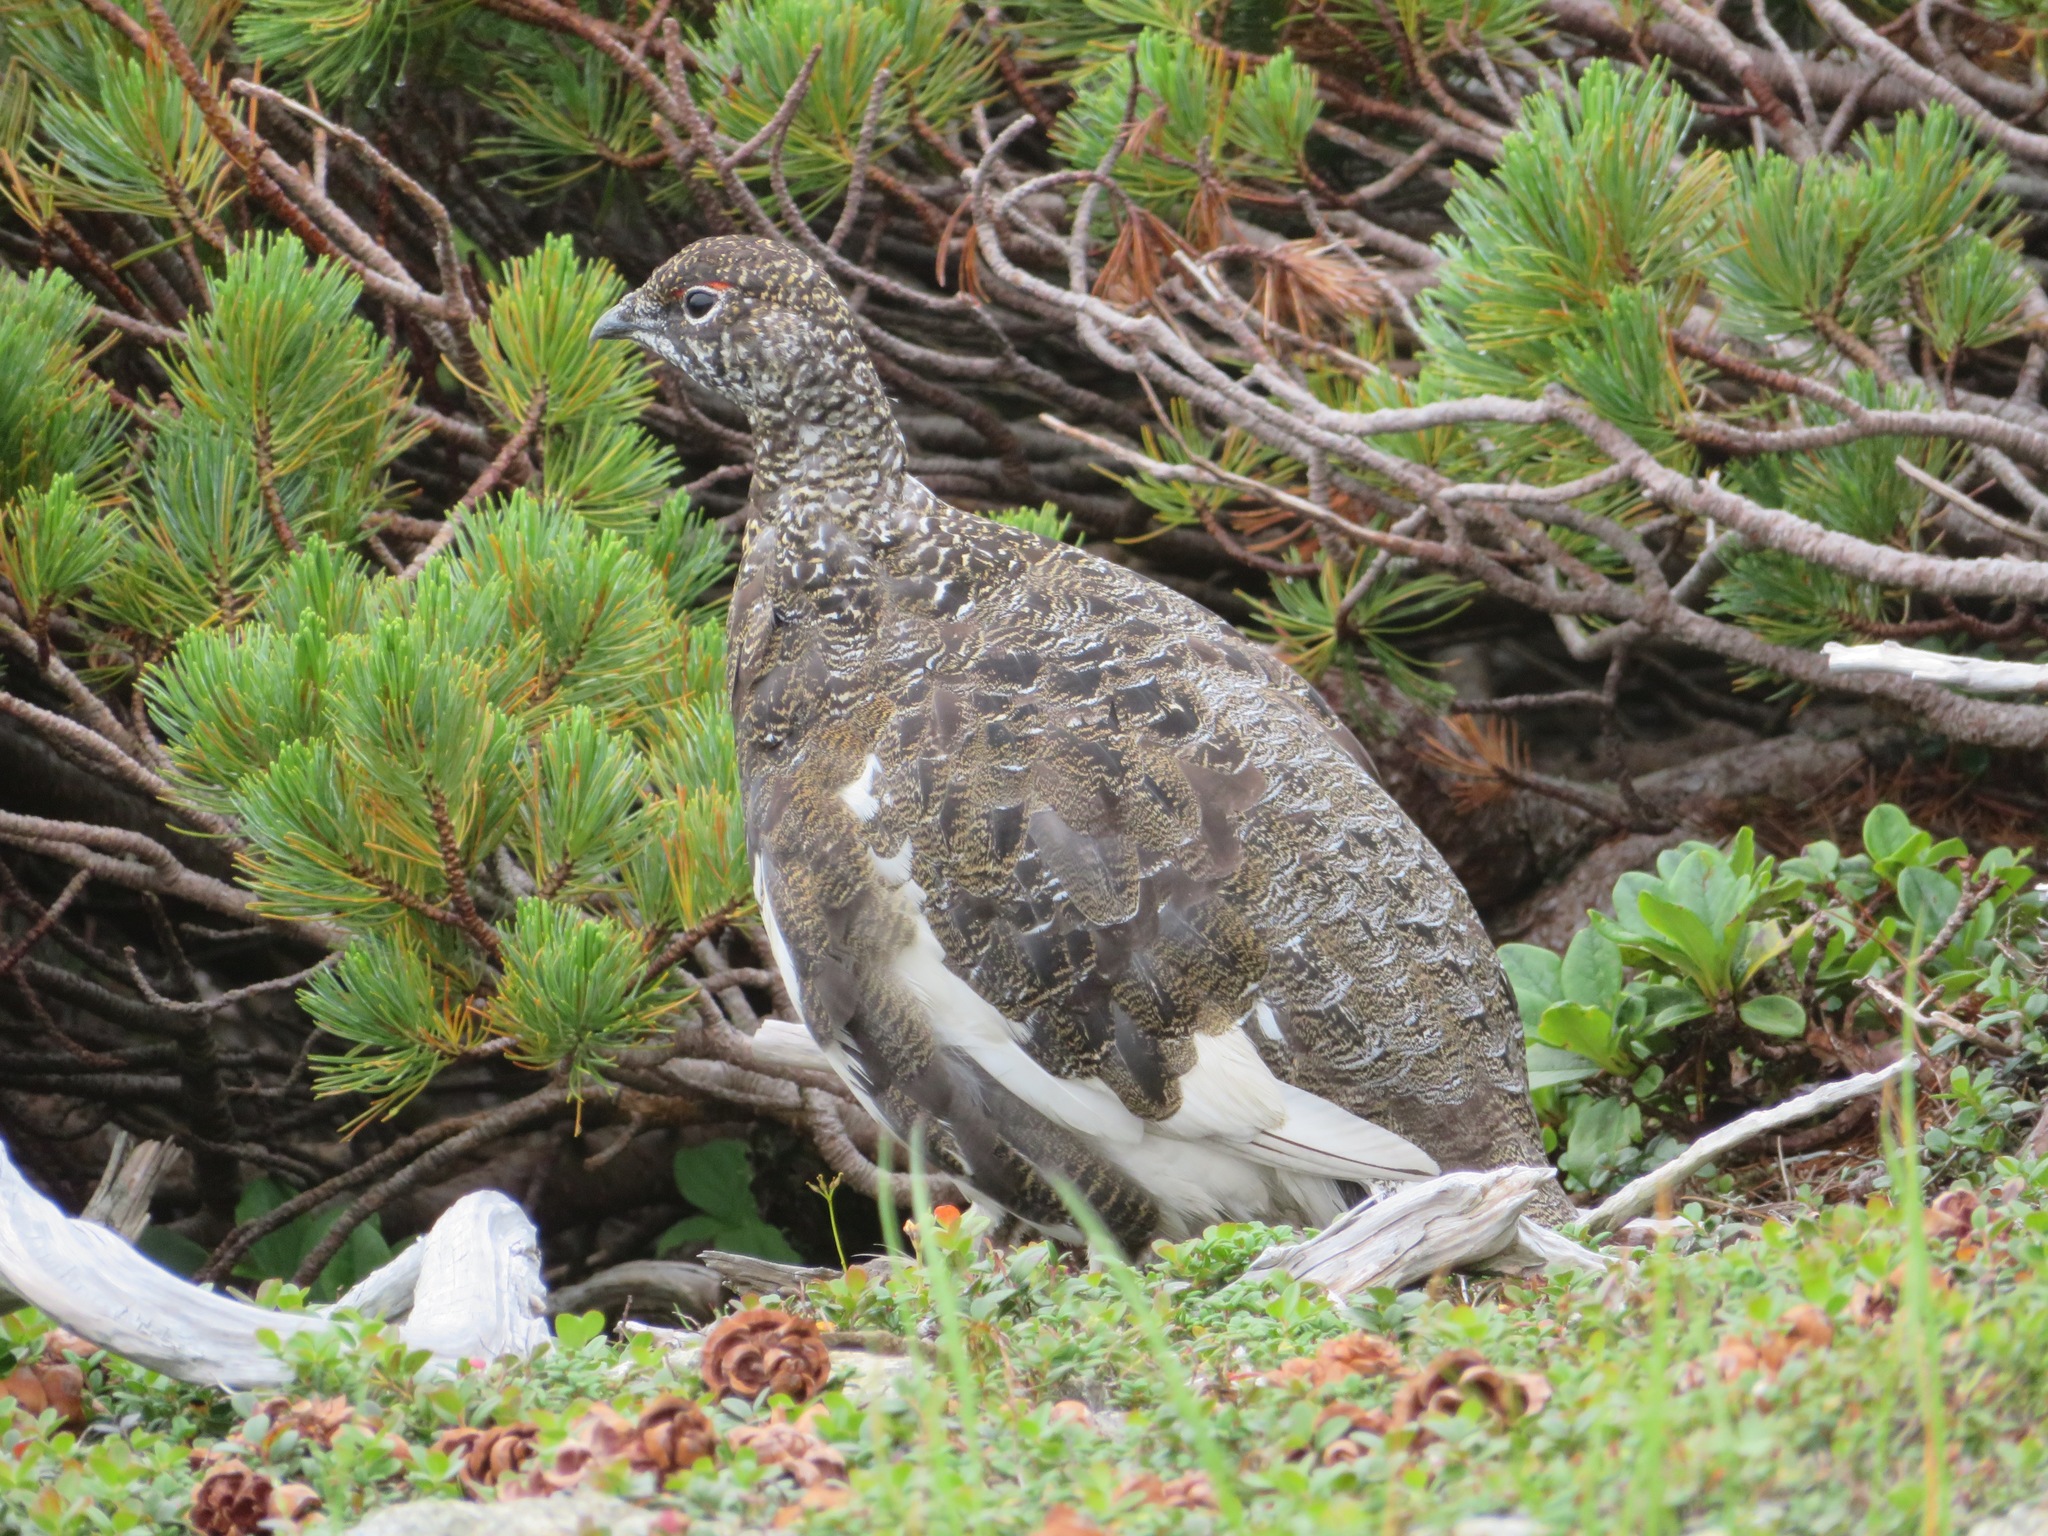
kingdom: Animalia
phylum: Chordata
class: Aves
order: Galliformes
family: Phasianidae
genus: Lagopus
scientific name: Lagopus muta
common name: Rock ptarmigan
